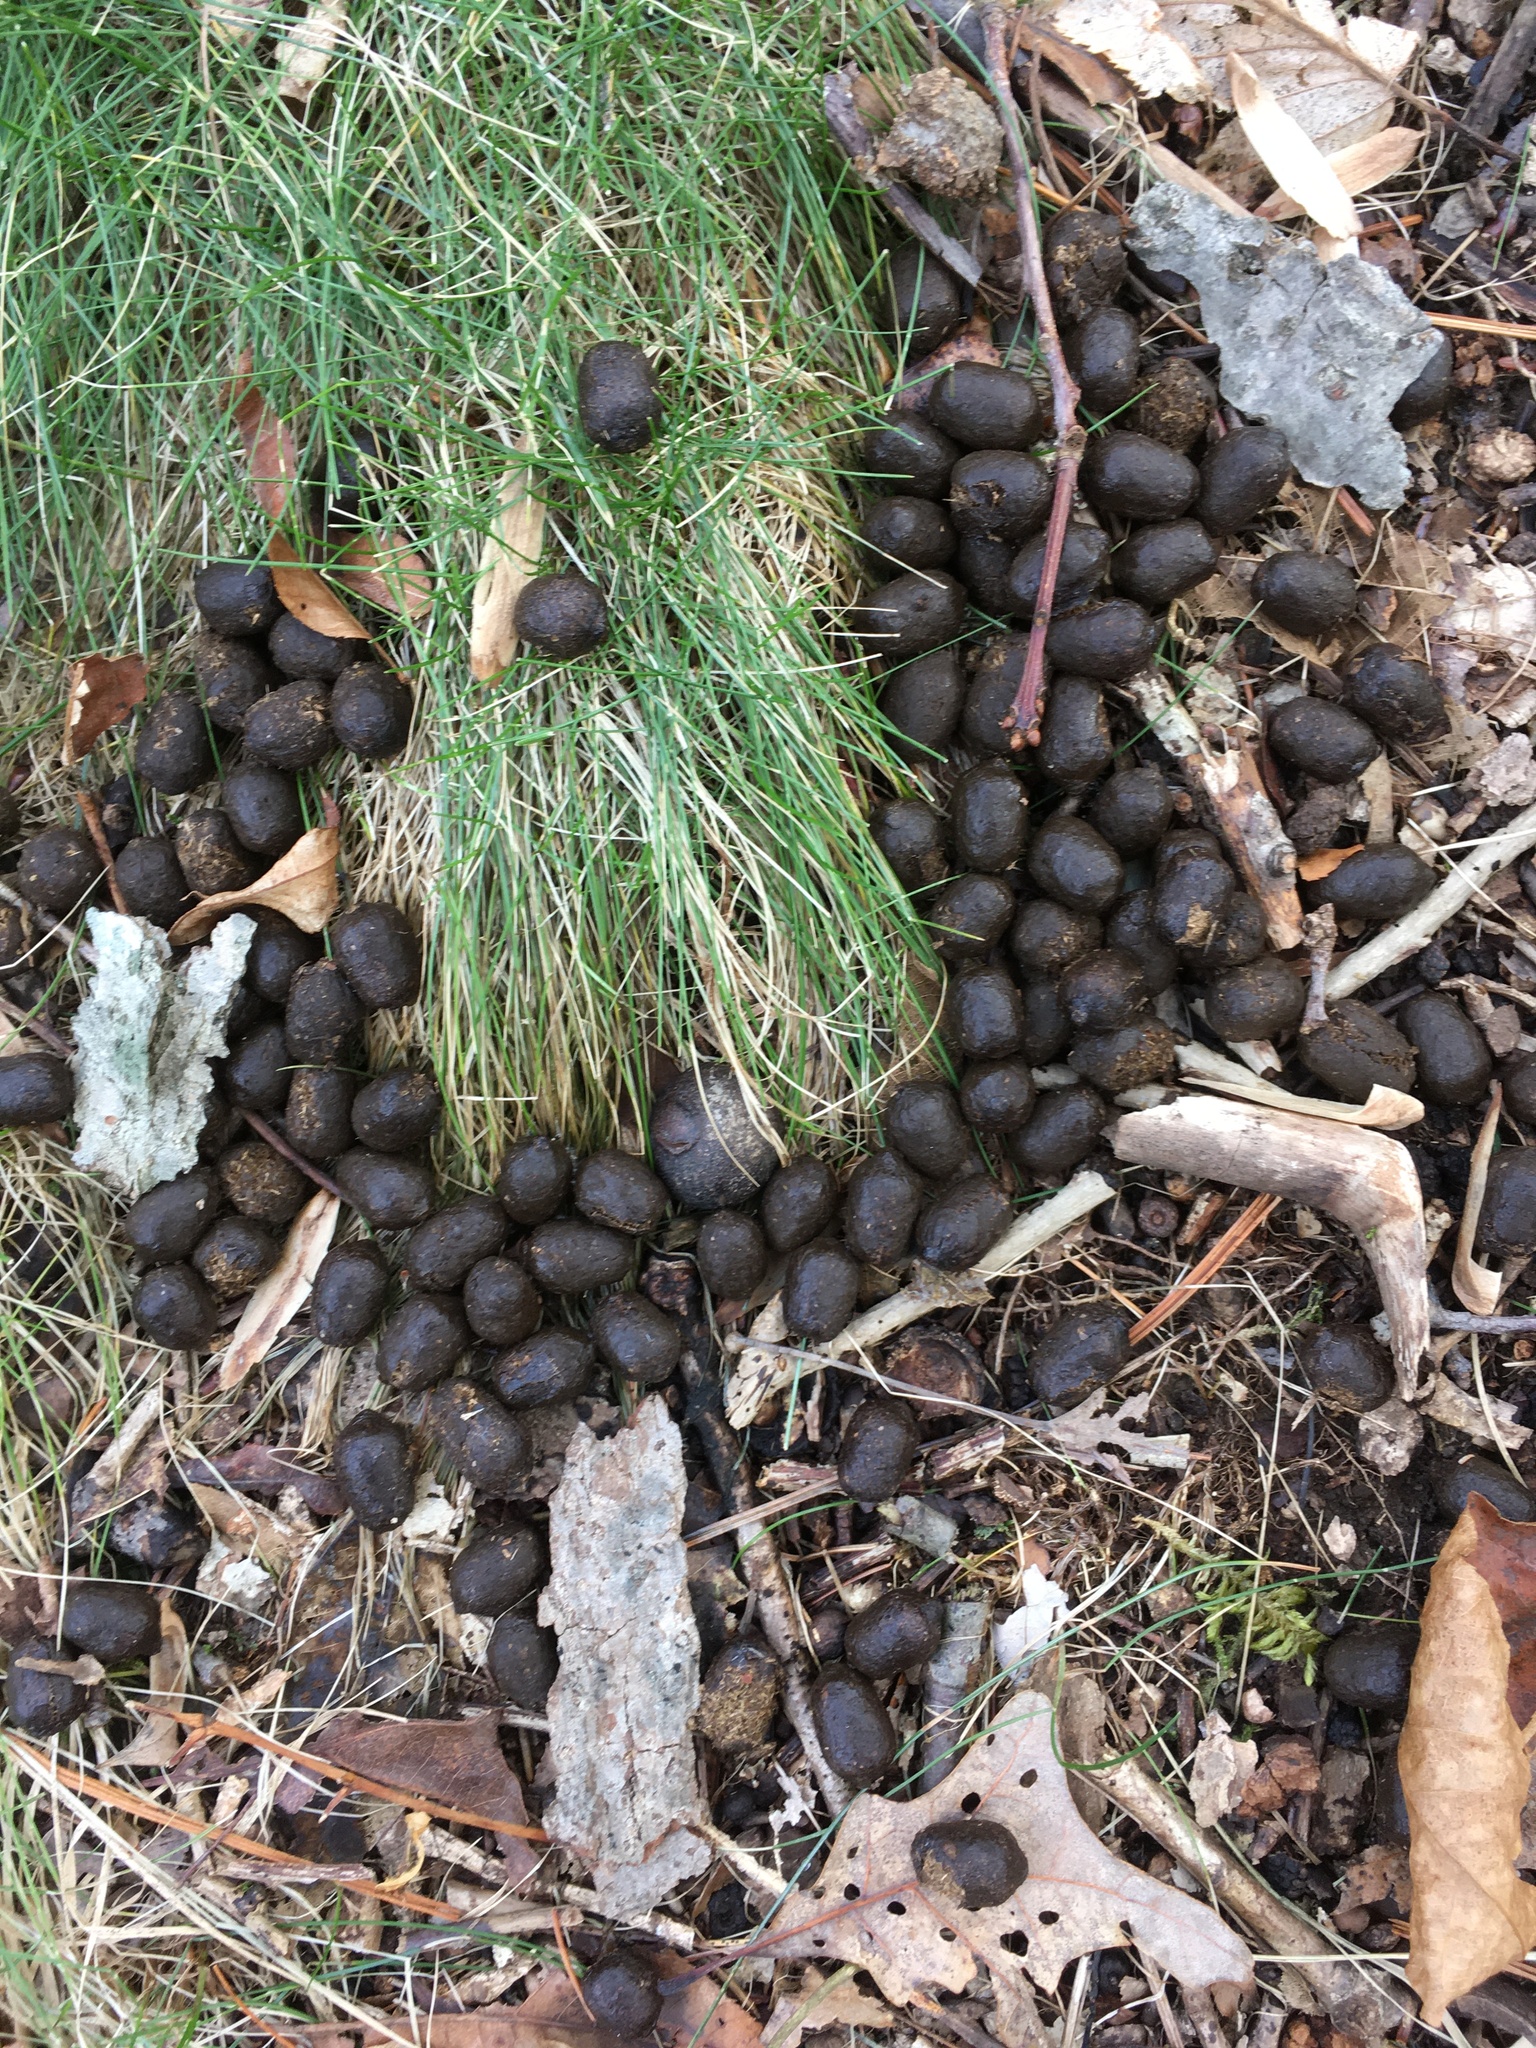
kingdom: Animalia
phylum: Chordata
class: Mammalia
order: Artiodactyla
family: Cervidae
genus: Odocoileus
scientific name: Odocoileus virginianus
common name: White-tailed deer
